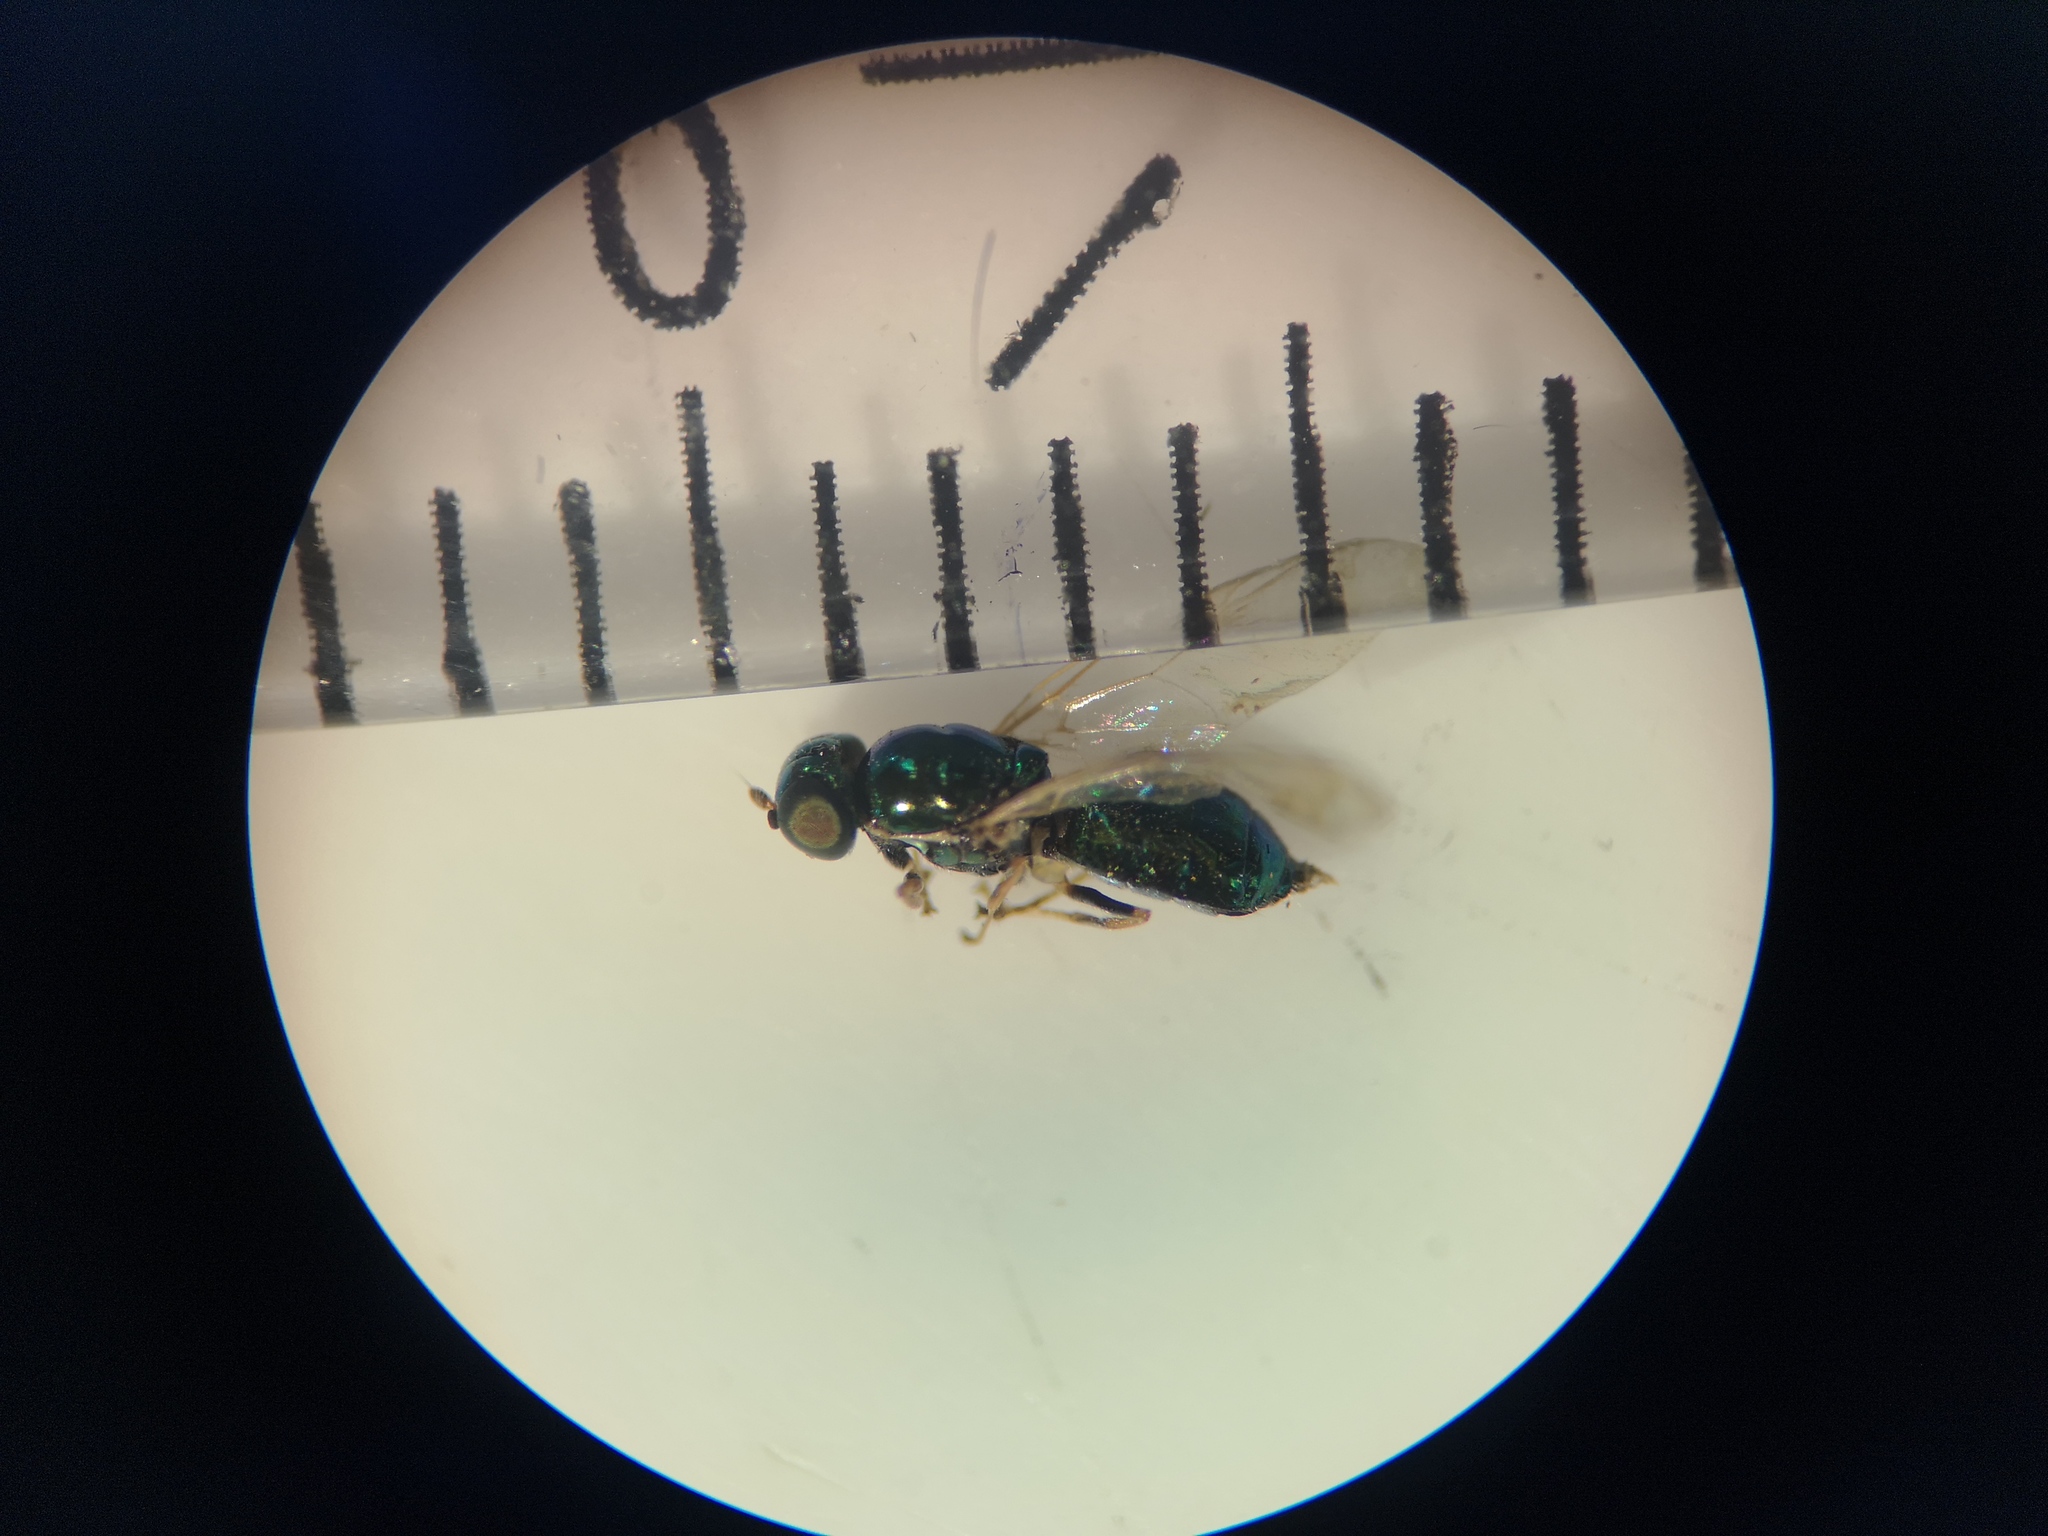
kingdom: Animalia
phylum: Arthropoda
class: Insecta
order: Diptera
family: Stratiomyidae
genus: Microchrysa
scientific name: Microchrysa flavicornis
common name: Soldier fly
